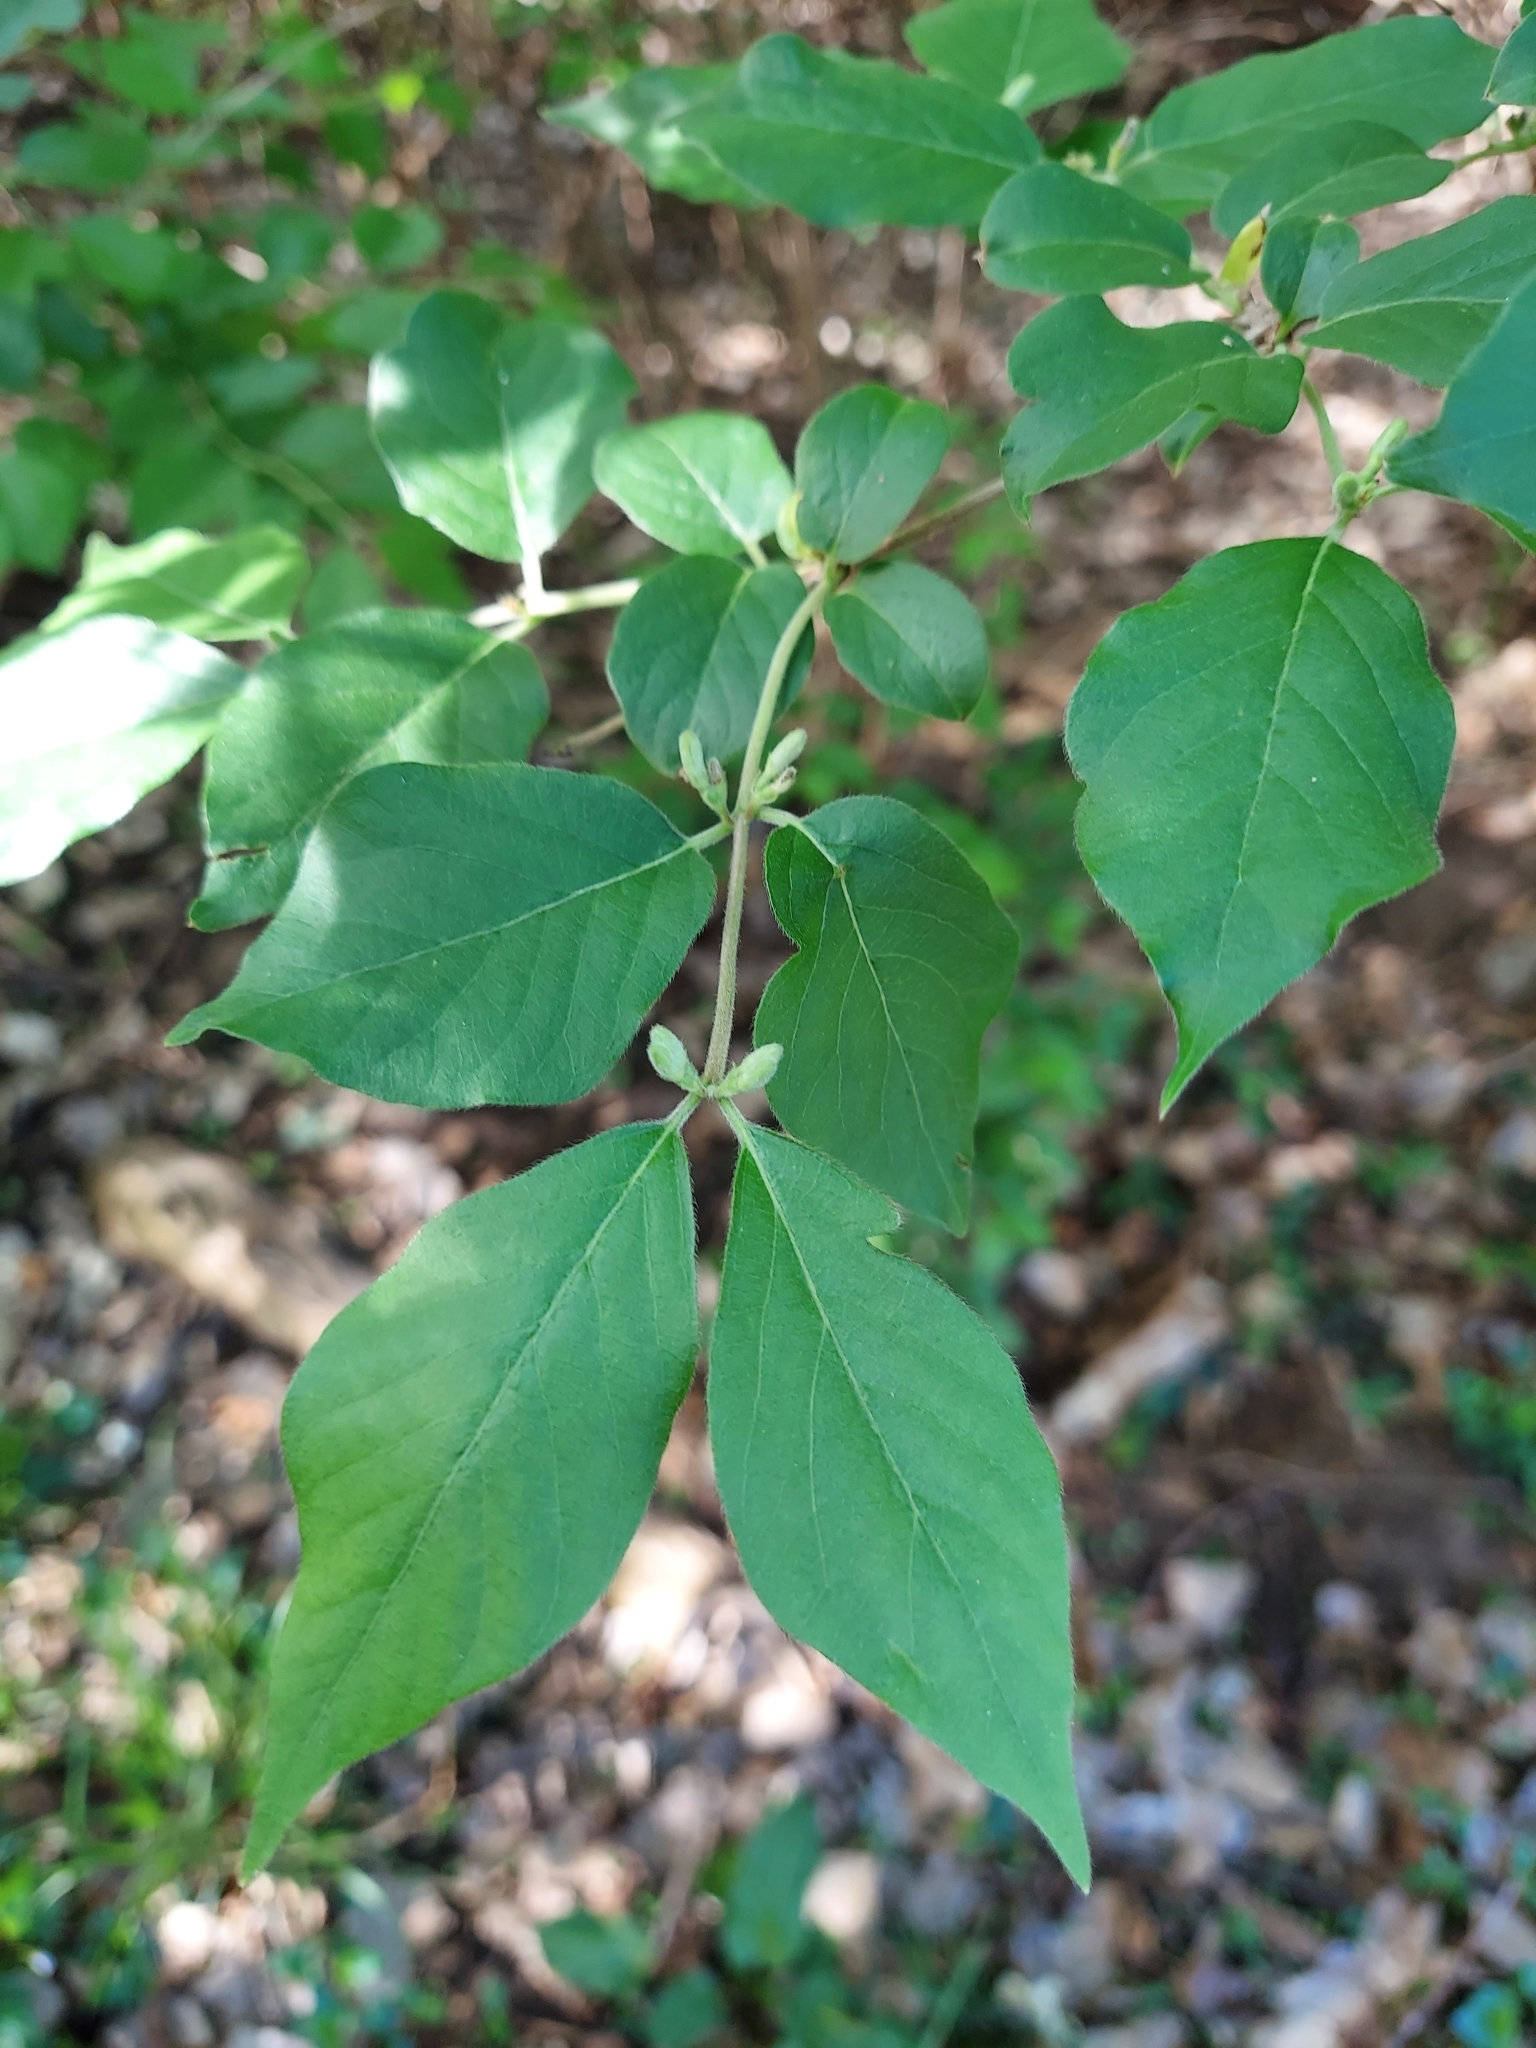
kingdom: Plantae
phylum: Tracheophyta
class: Magnoliopsida
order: Dipsacales
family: Caprifoliaceae
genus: Lonicera
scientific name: Lonicera maackii
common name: Amur honeysuckle
